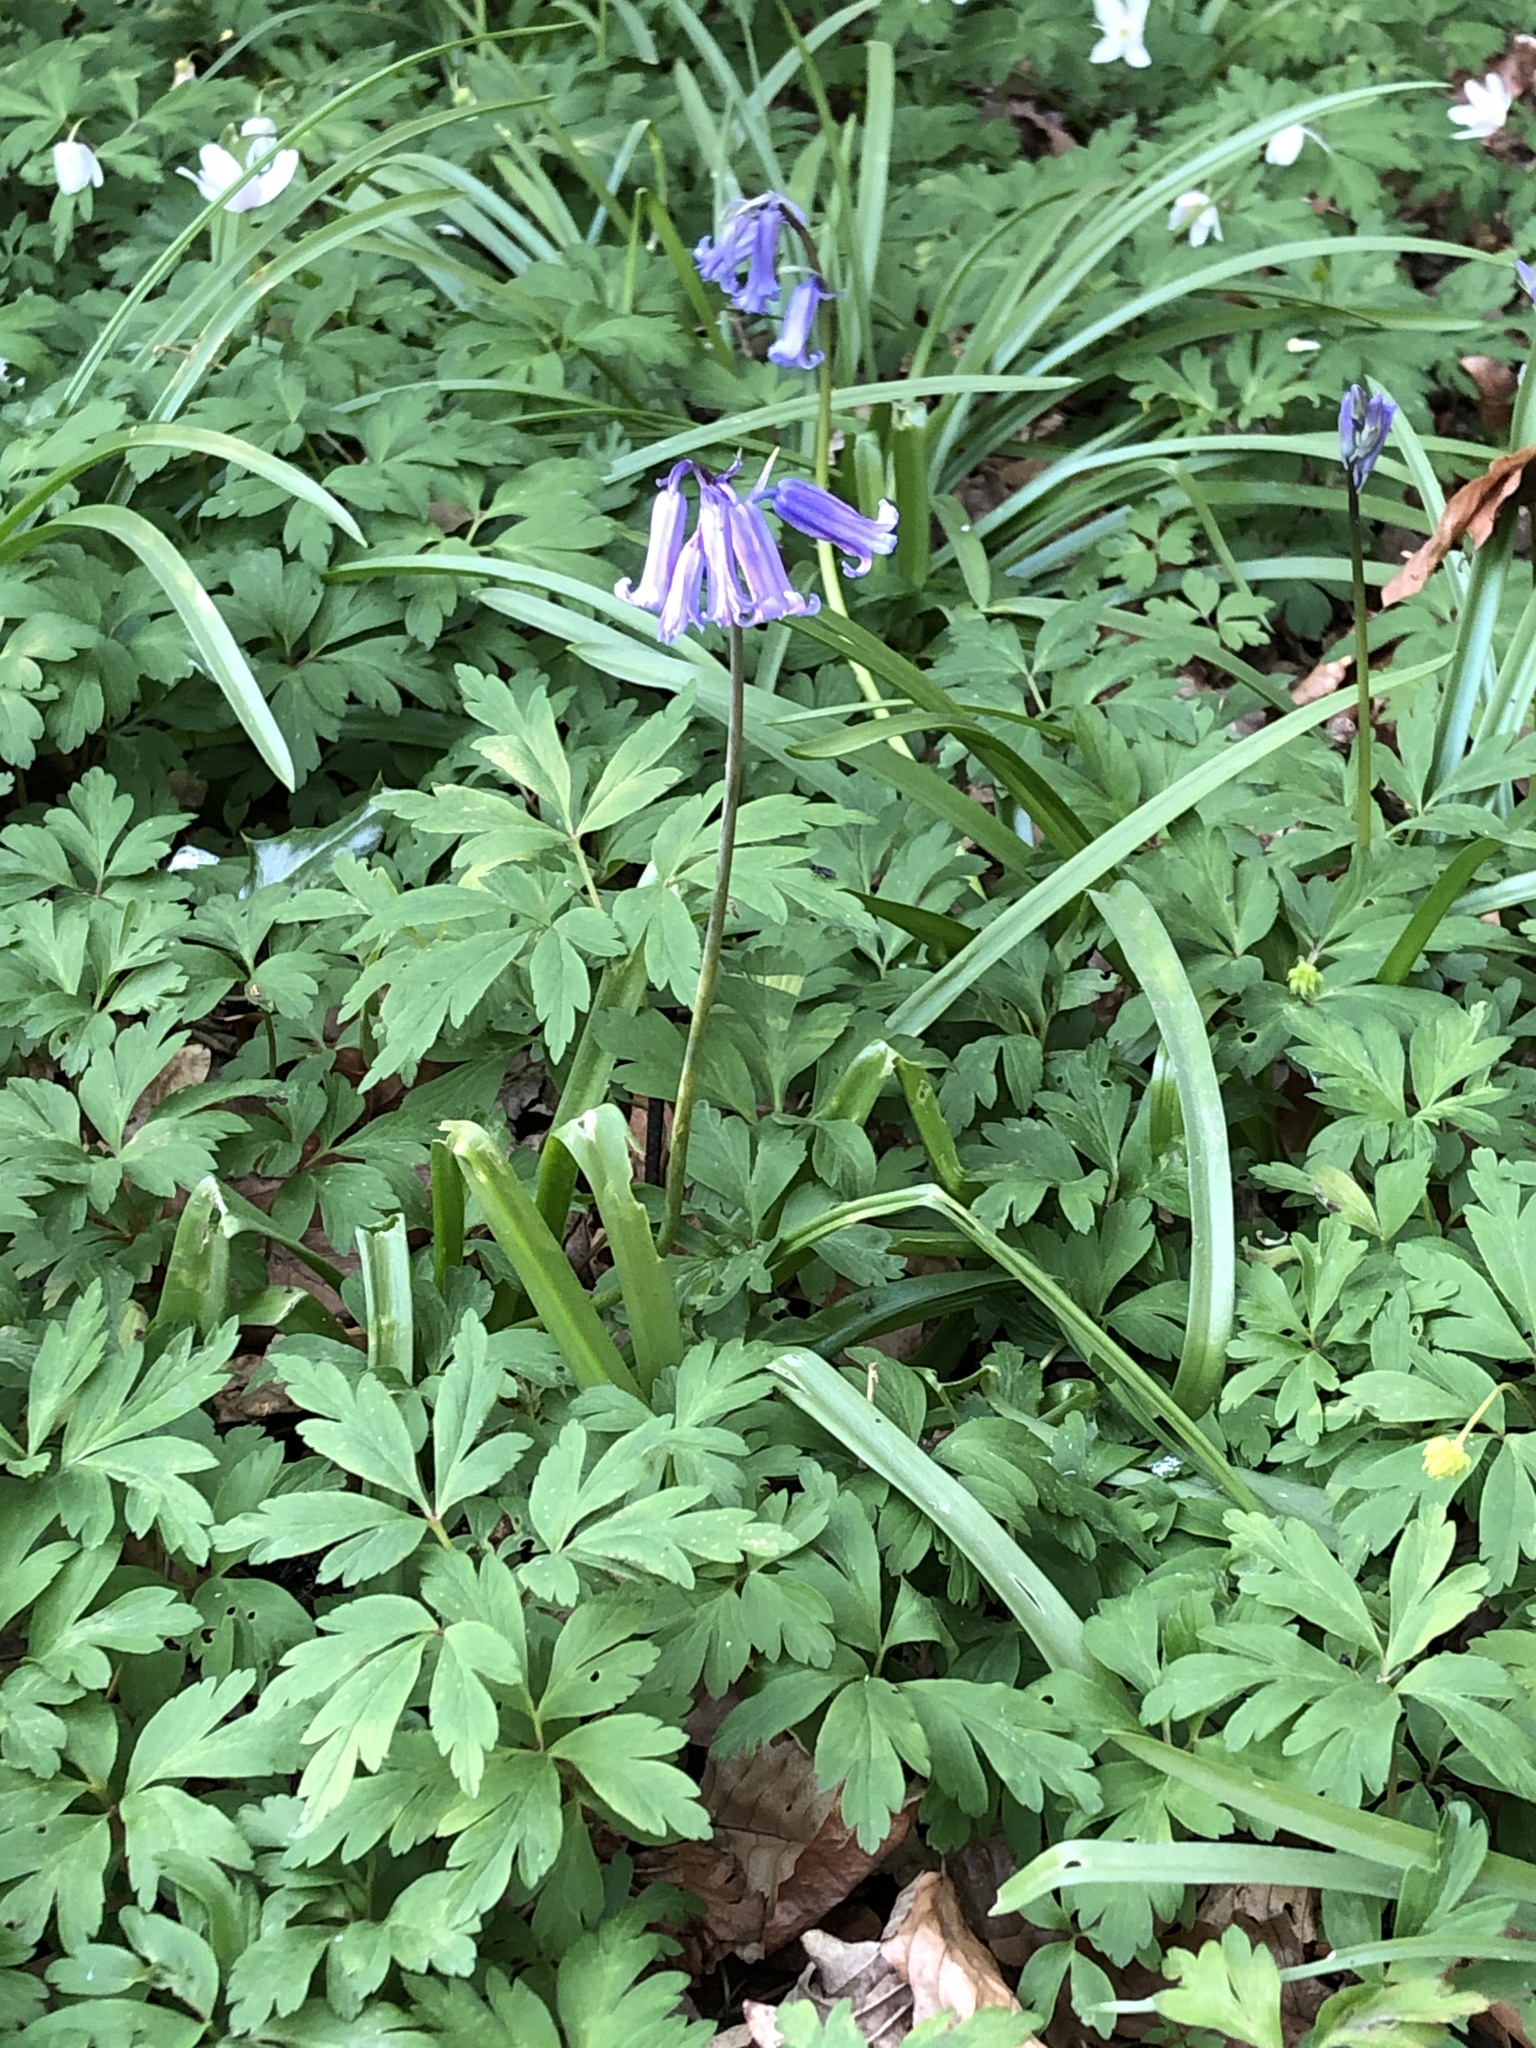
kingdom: Plantae
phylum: Tracheophyta
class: Liliopsida
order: Asparagales
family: Asparagaceae
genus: Hyacinthoides
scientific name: Hyacinthoides non-scripta
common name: Bluebell
